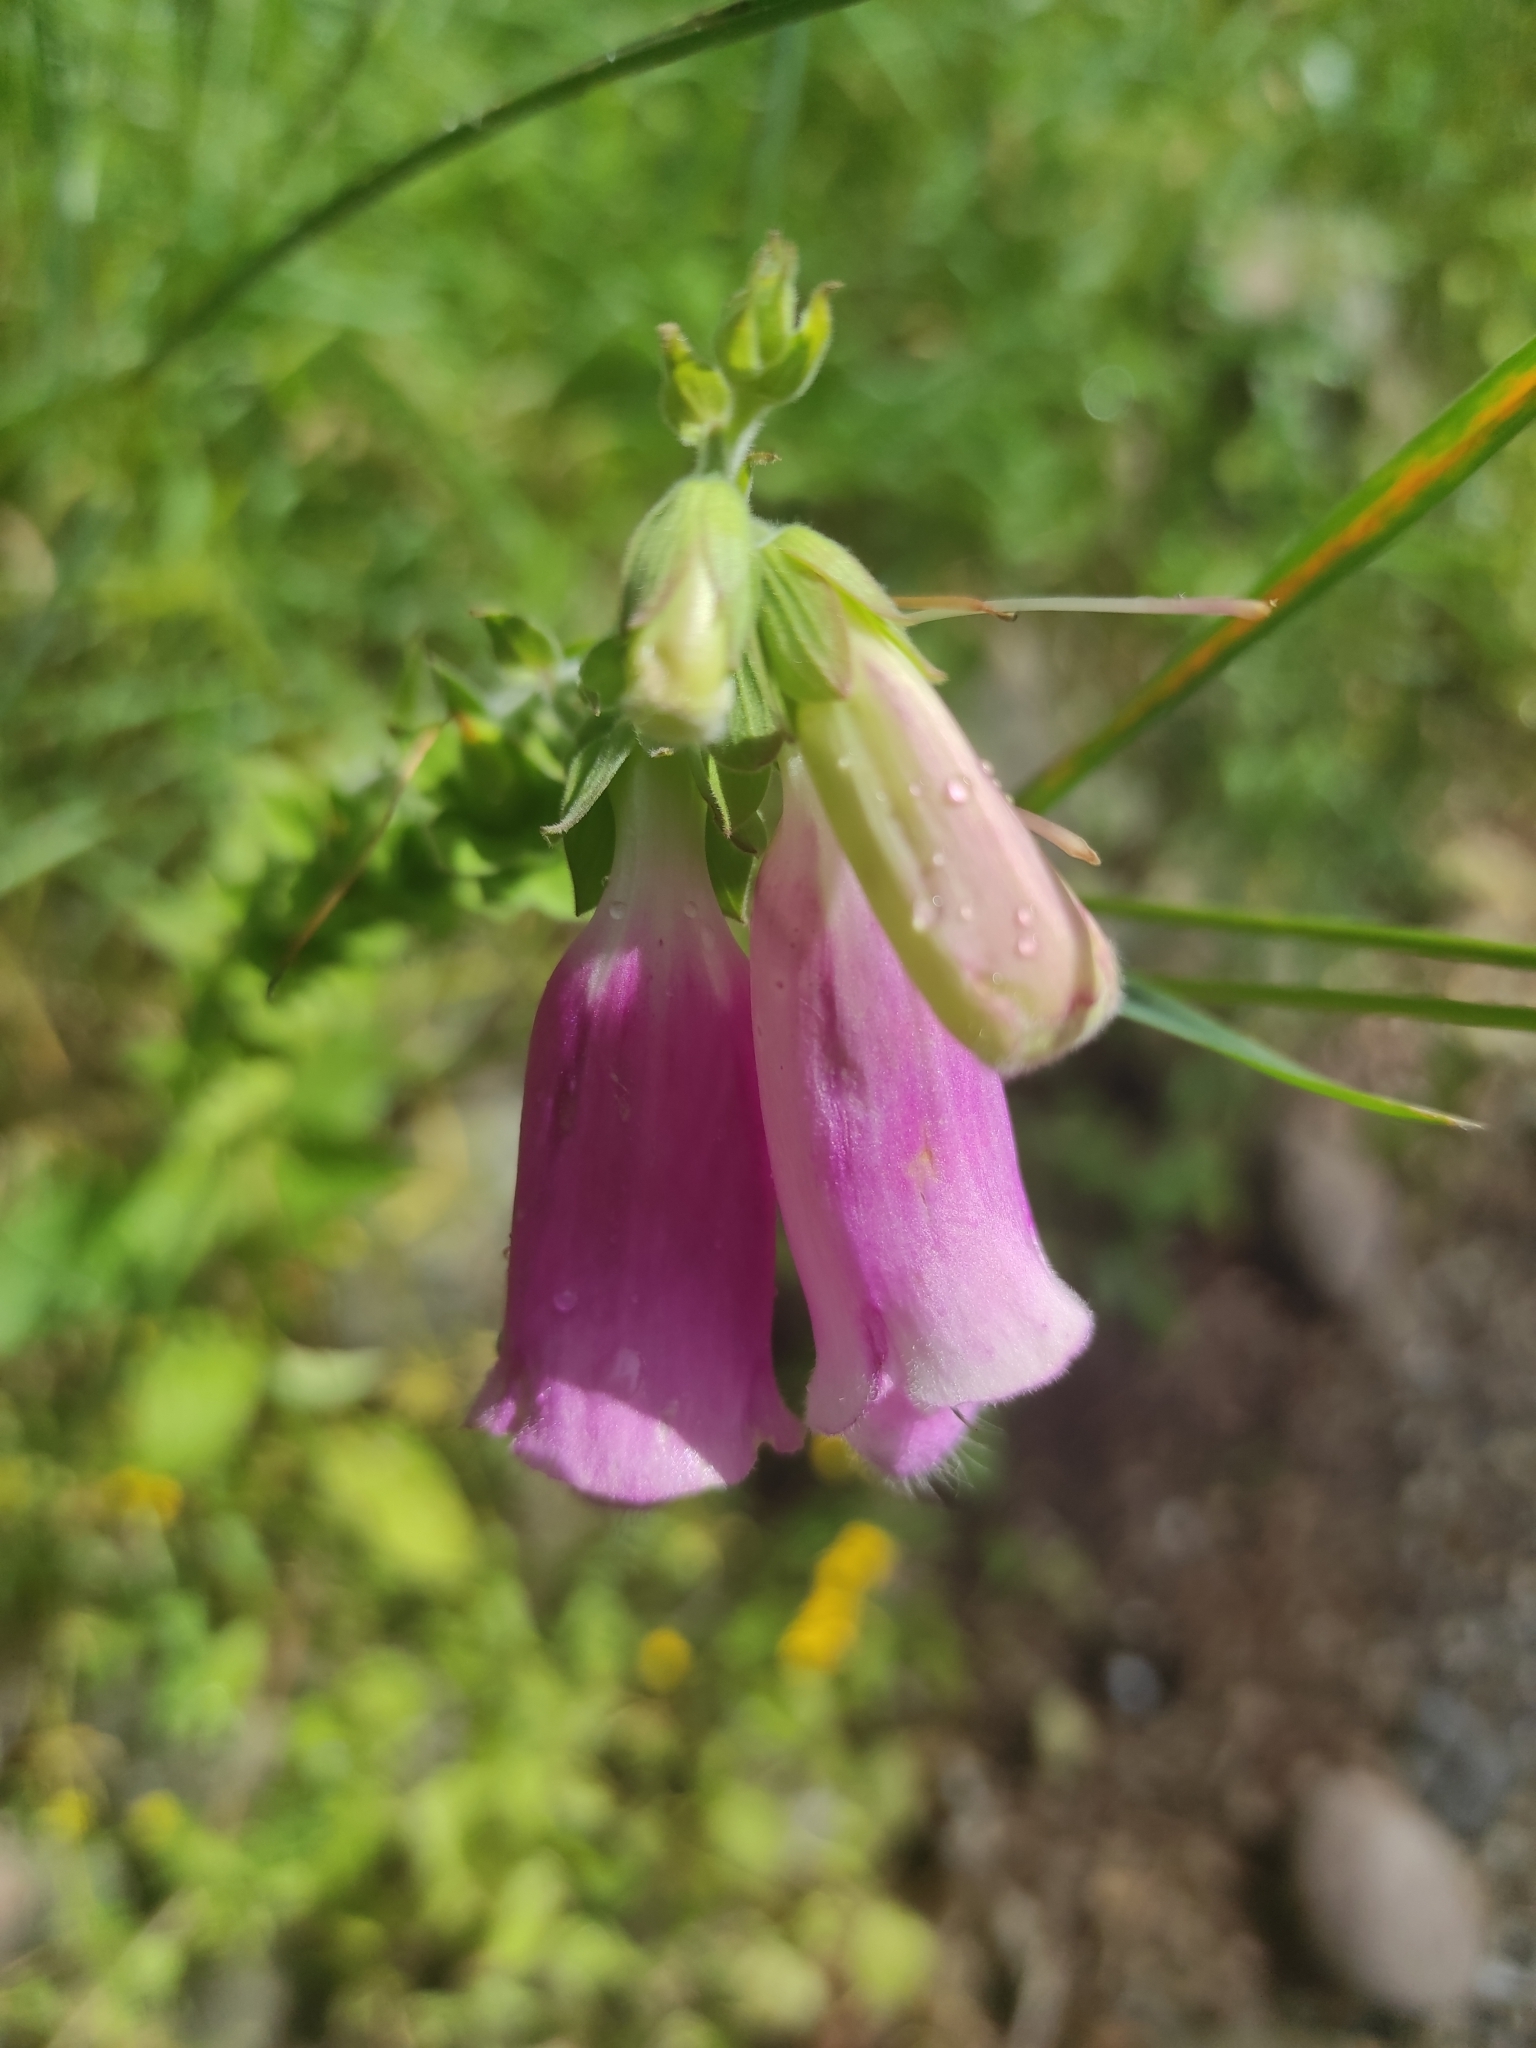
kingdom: Plantae
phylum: Tracheophyta
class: Magnoliopsida
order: Lamiales
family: Plantaginaceae
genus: Digitalis
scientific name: Digitalis purpurea
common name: Foxglove
